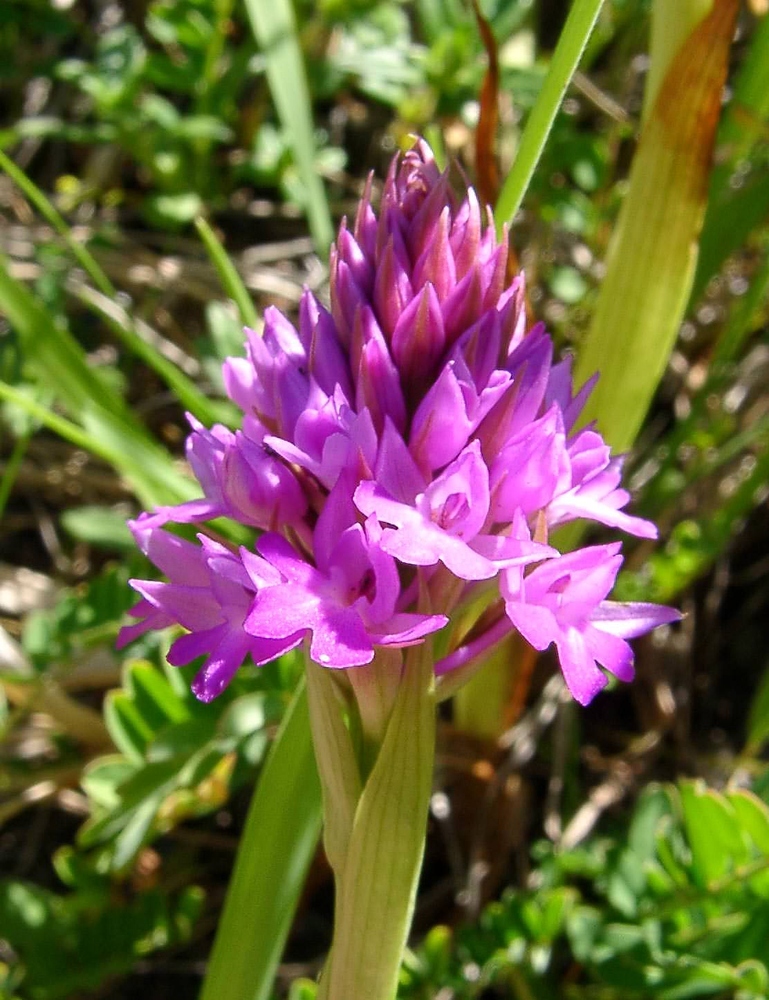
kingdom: Plantae
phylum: Tracheophyta
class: Liliopsida
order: Asparagales
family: Orchidaceae
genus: Anacamptis
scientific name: Anacamptis pyramidalis
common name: Pyramidal orchid
